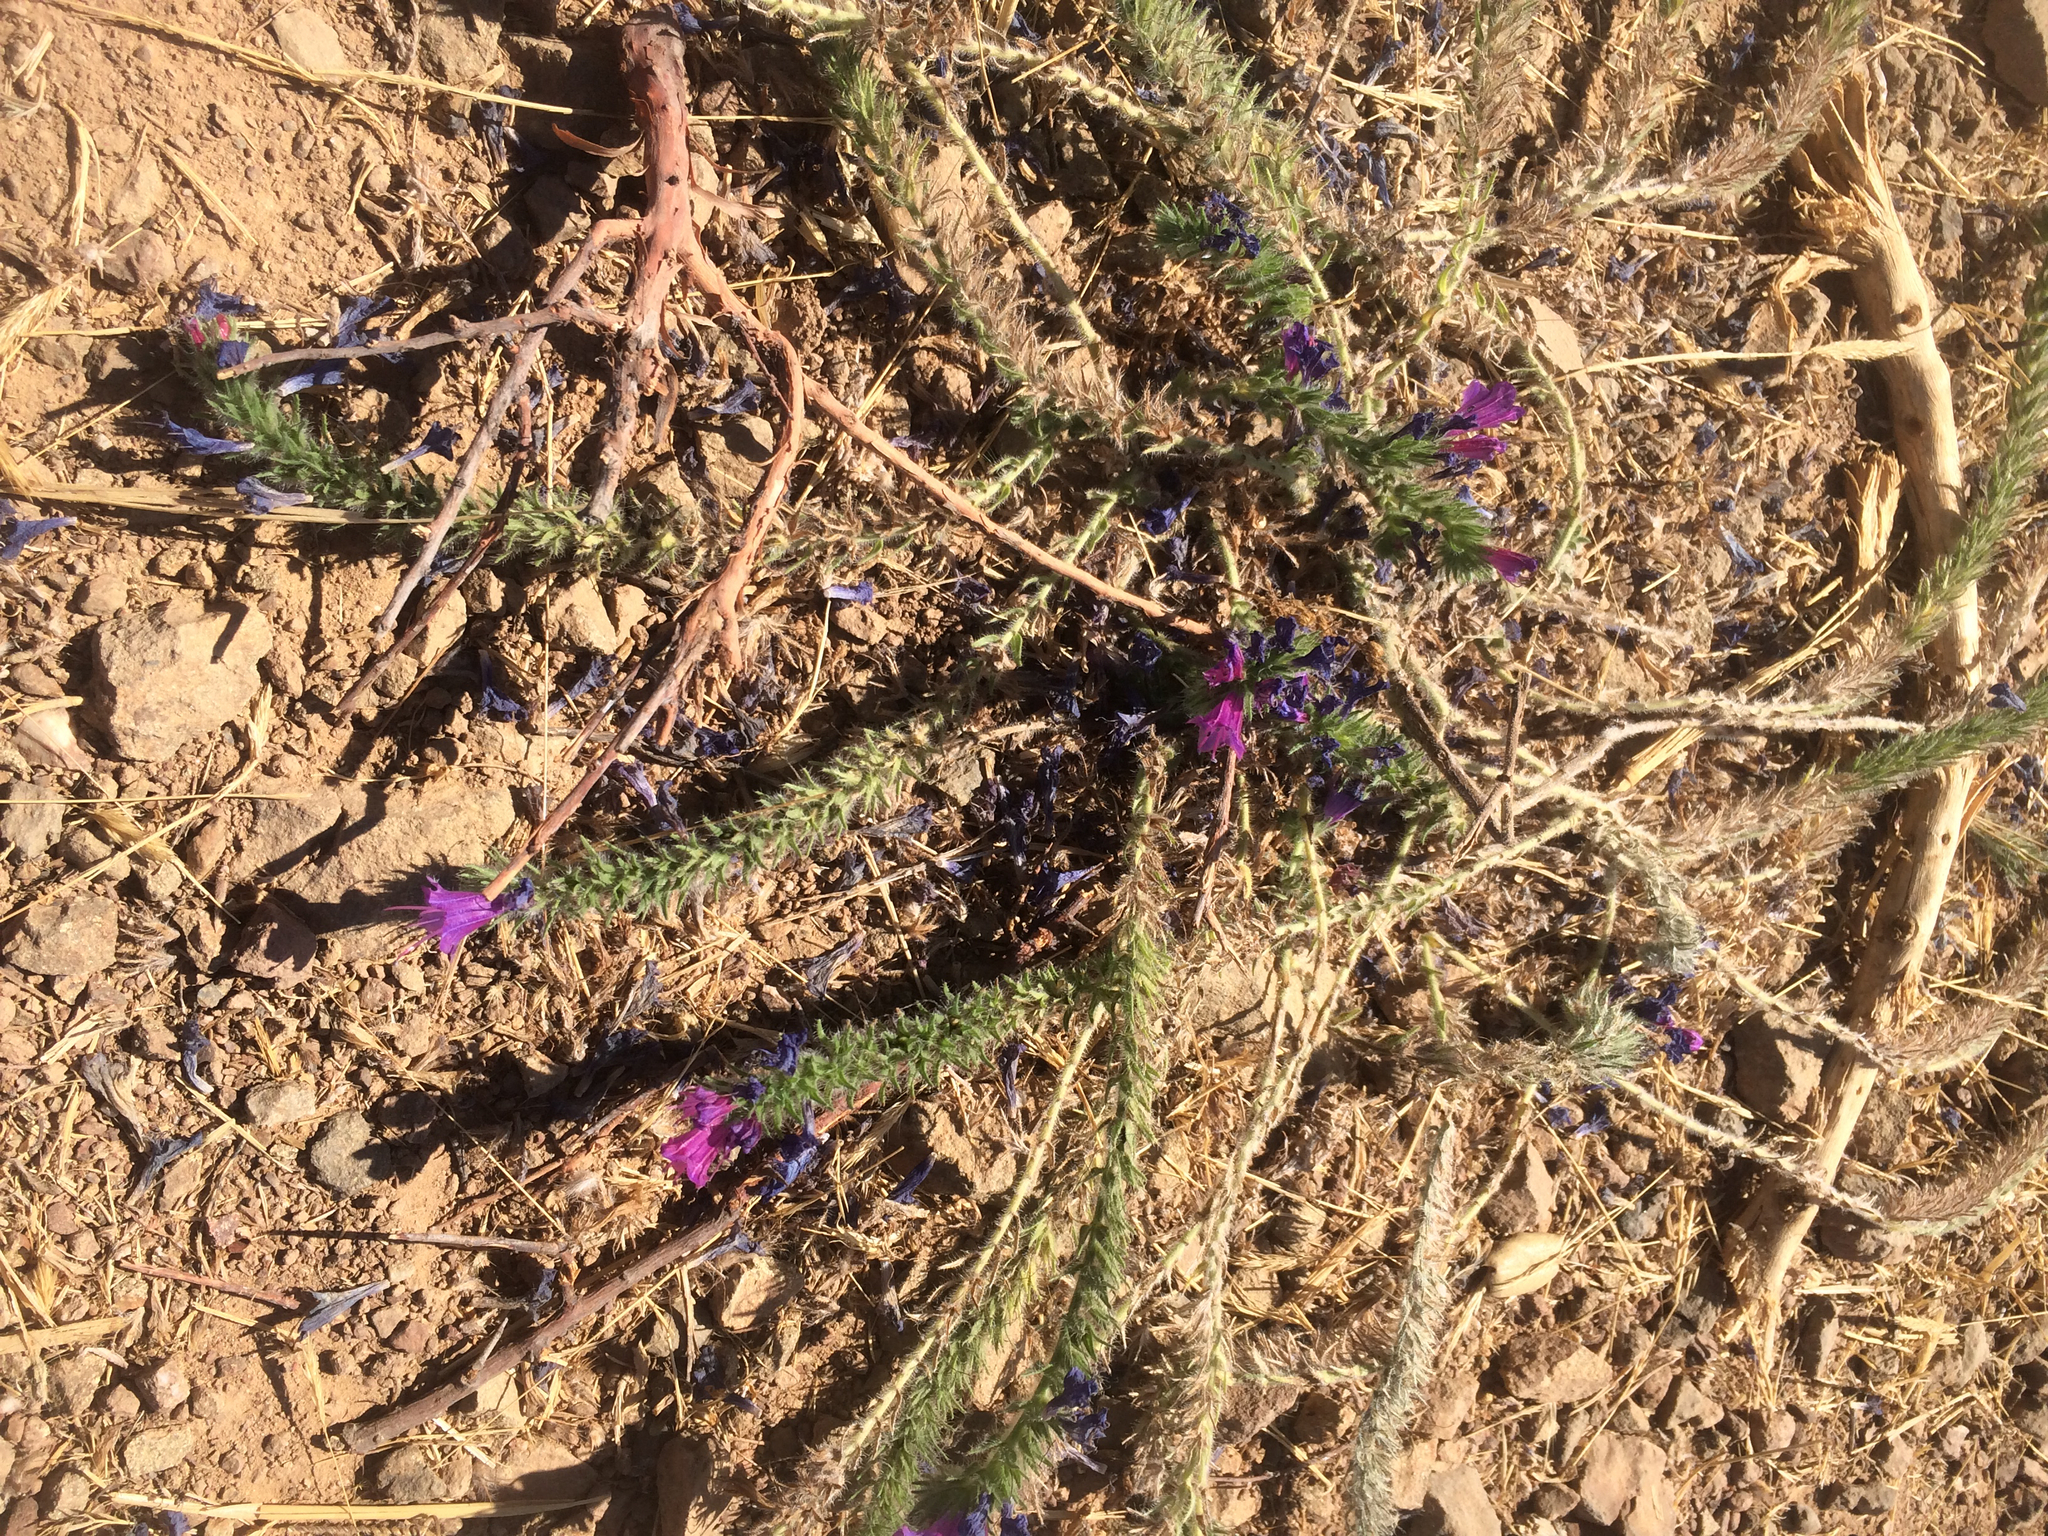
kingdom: Plantae
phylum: Tracheophyta
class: Magnoliopsida
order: Boraginales
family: Boraginaceae
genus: Echium
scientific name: Echium plantagineum
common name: Purple viper's-bugloss
